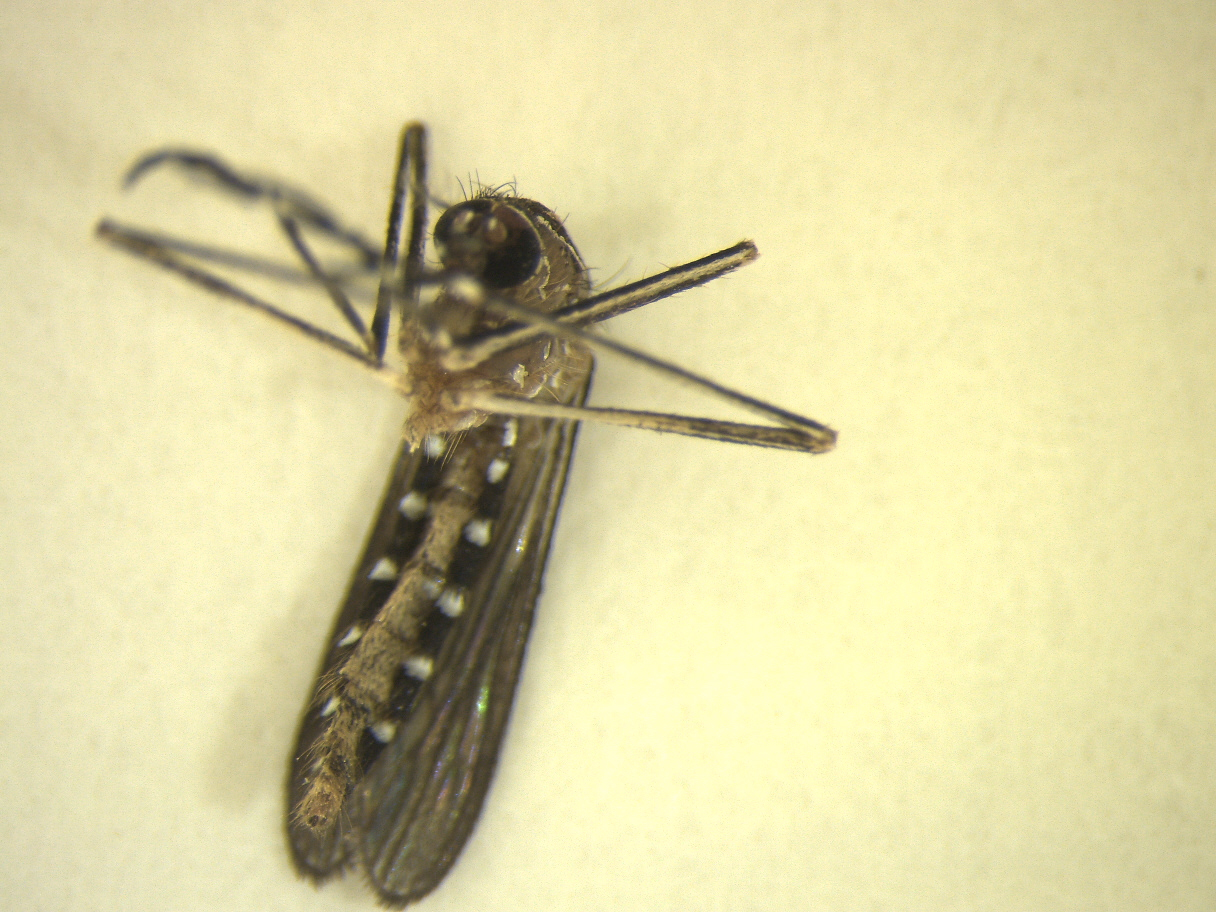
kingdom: Animalia
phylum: Arthropoda
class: Insecta
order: Diptera
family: Culicidae
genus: Aedes
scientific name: Aedes notoscriptus
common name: Australian backyard mosquito
